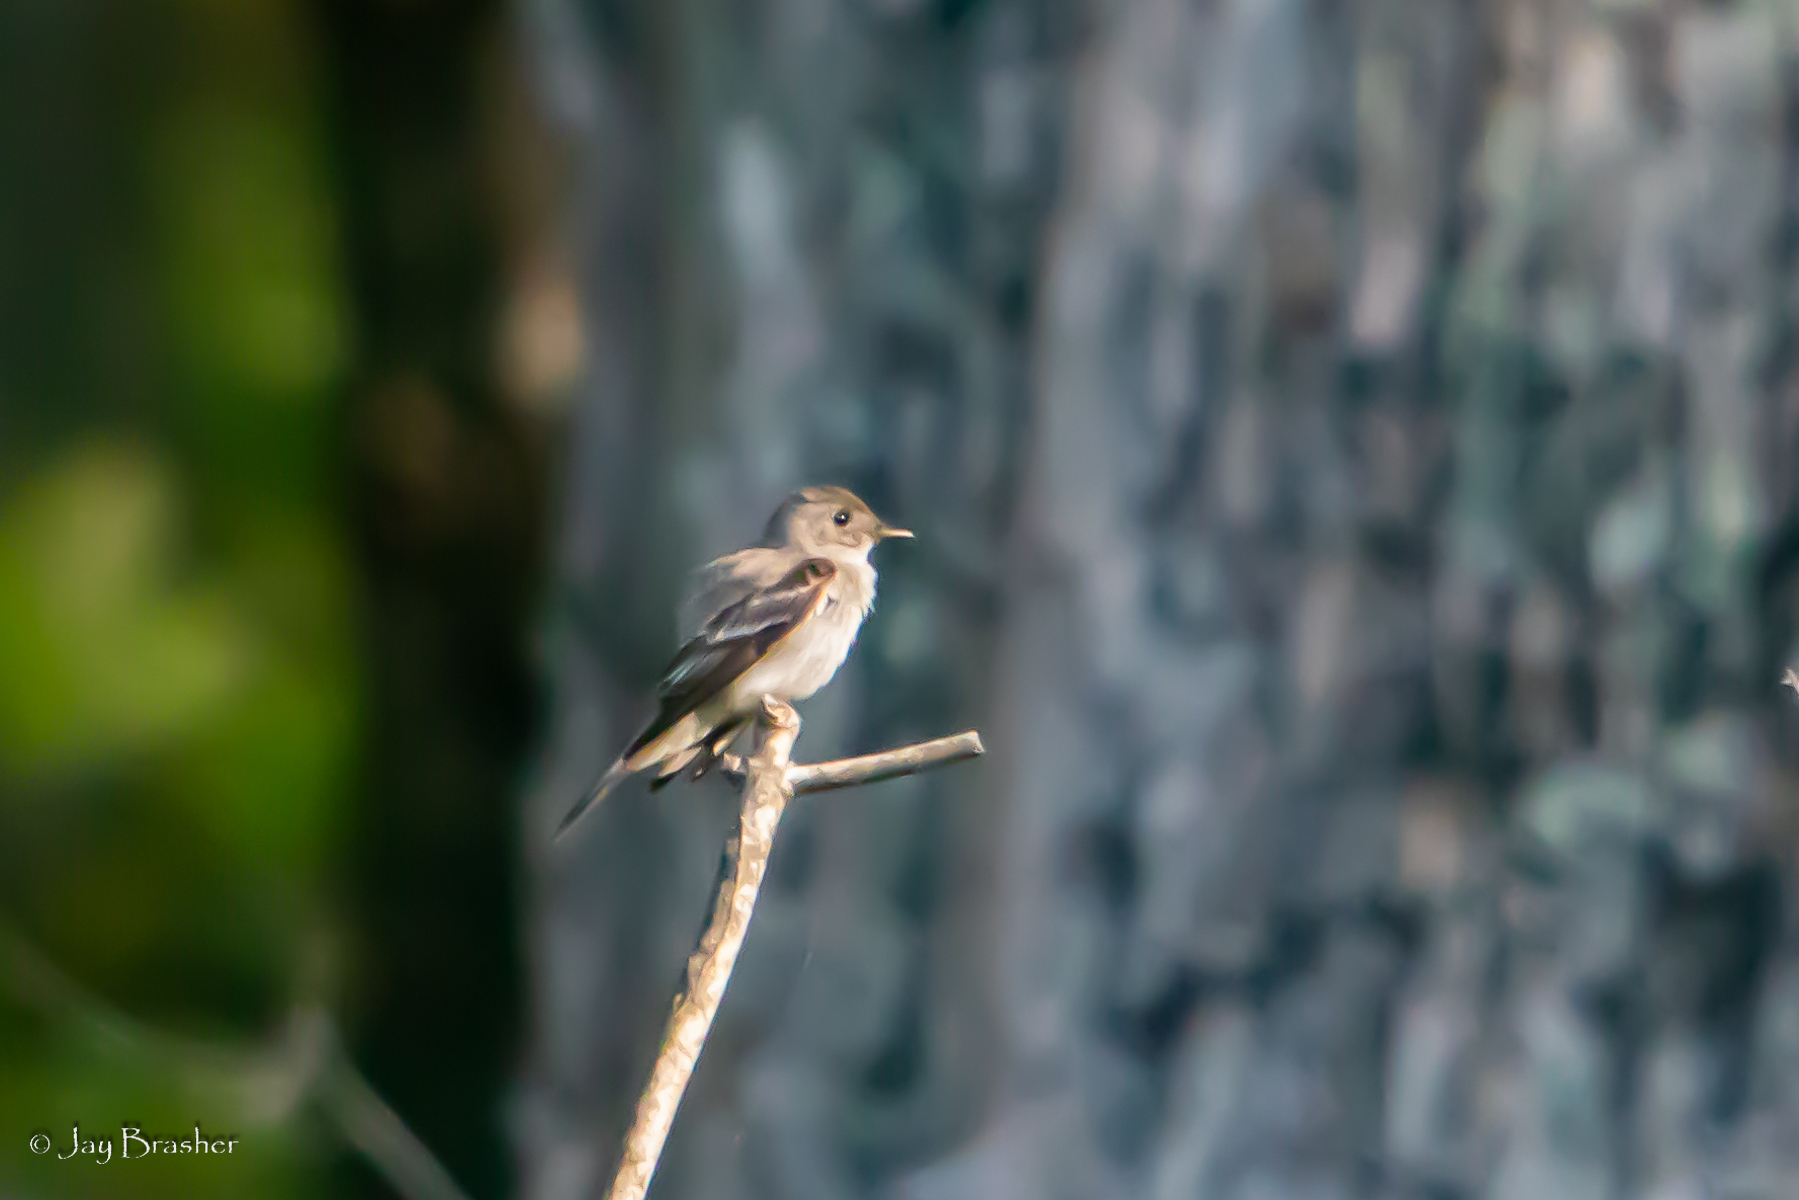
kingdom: Animalia
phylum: Chordata
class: Aves
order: Passeriformes
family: Tyrannidae
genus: Contopus
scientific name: Contopus virens
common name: Eastern wood-pewee
